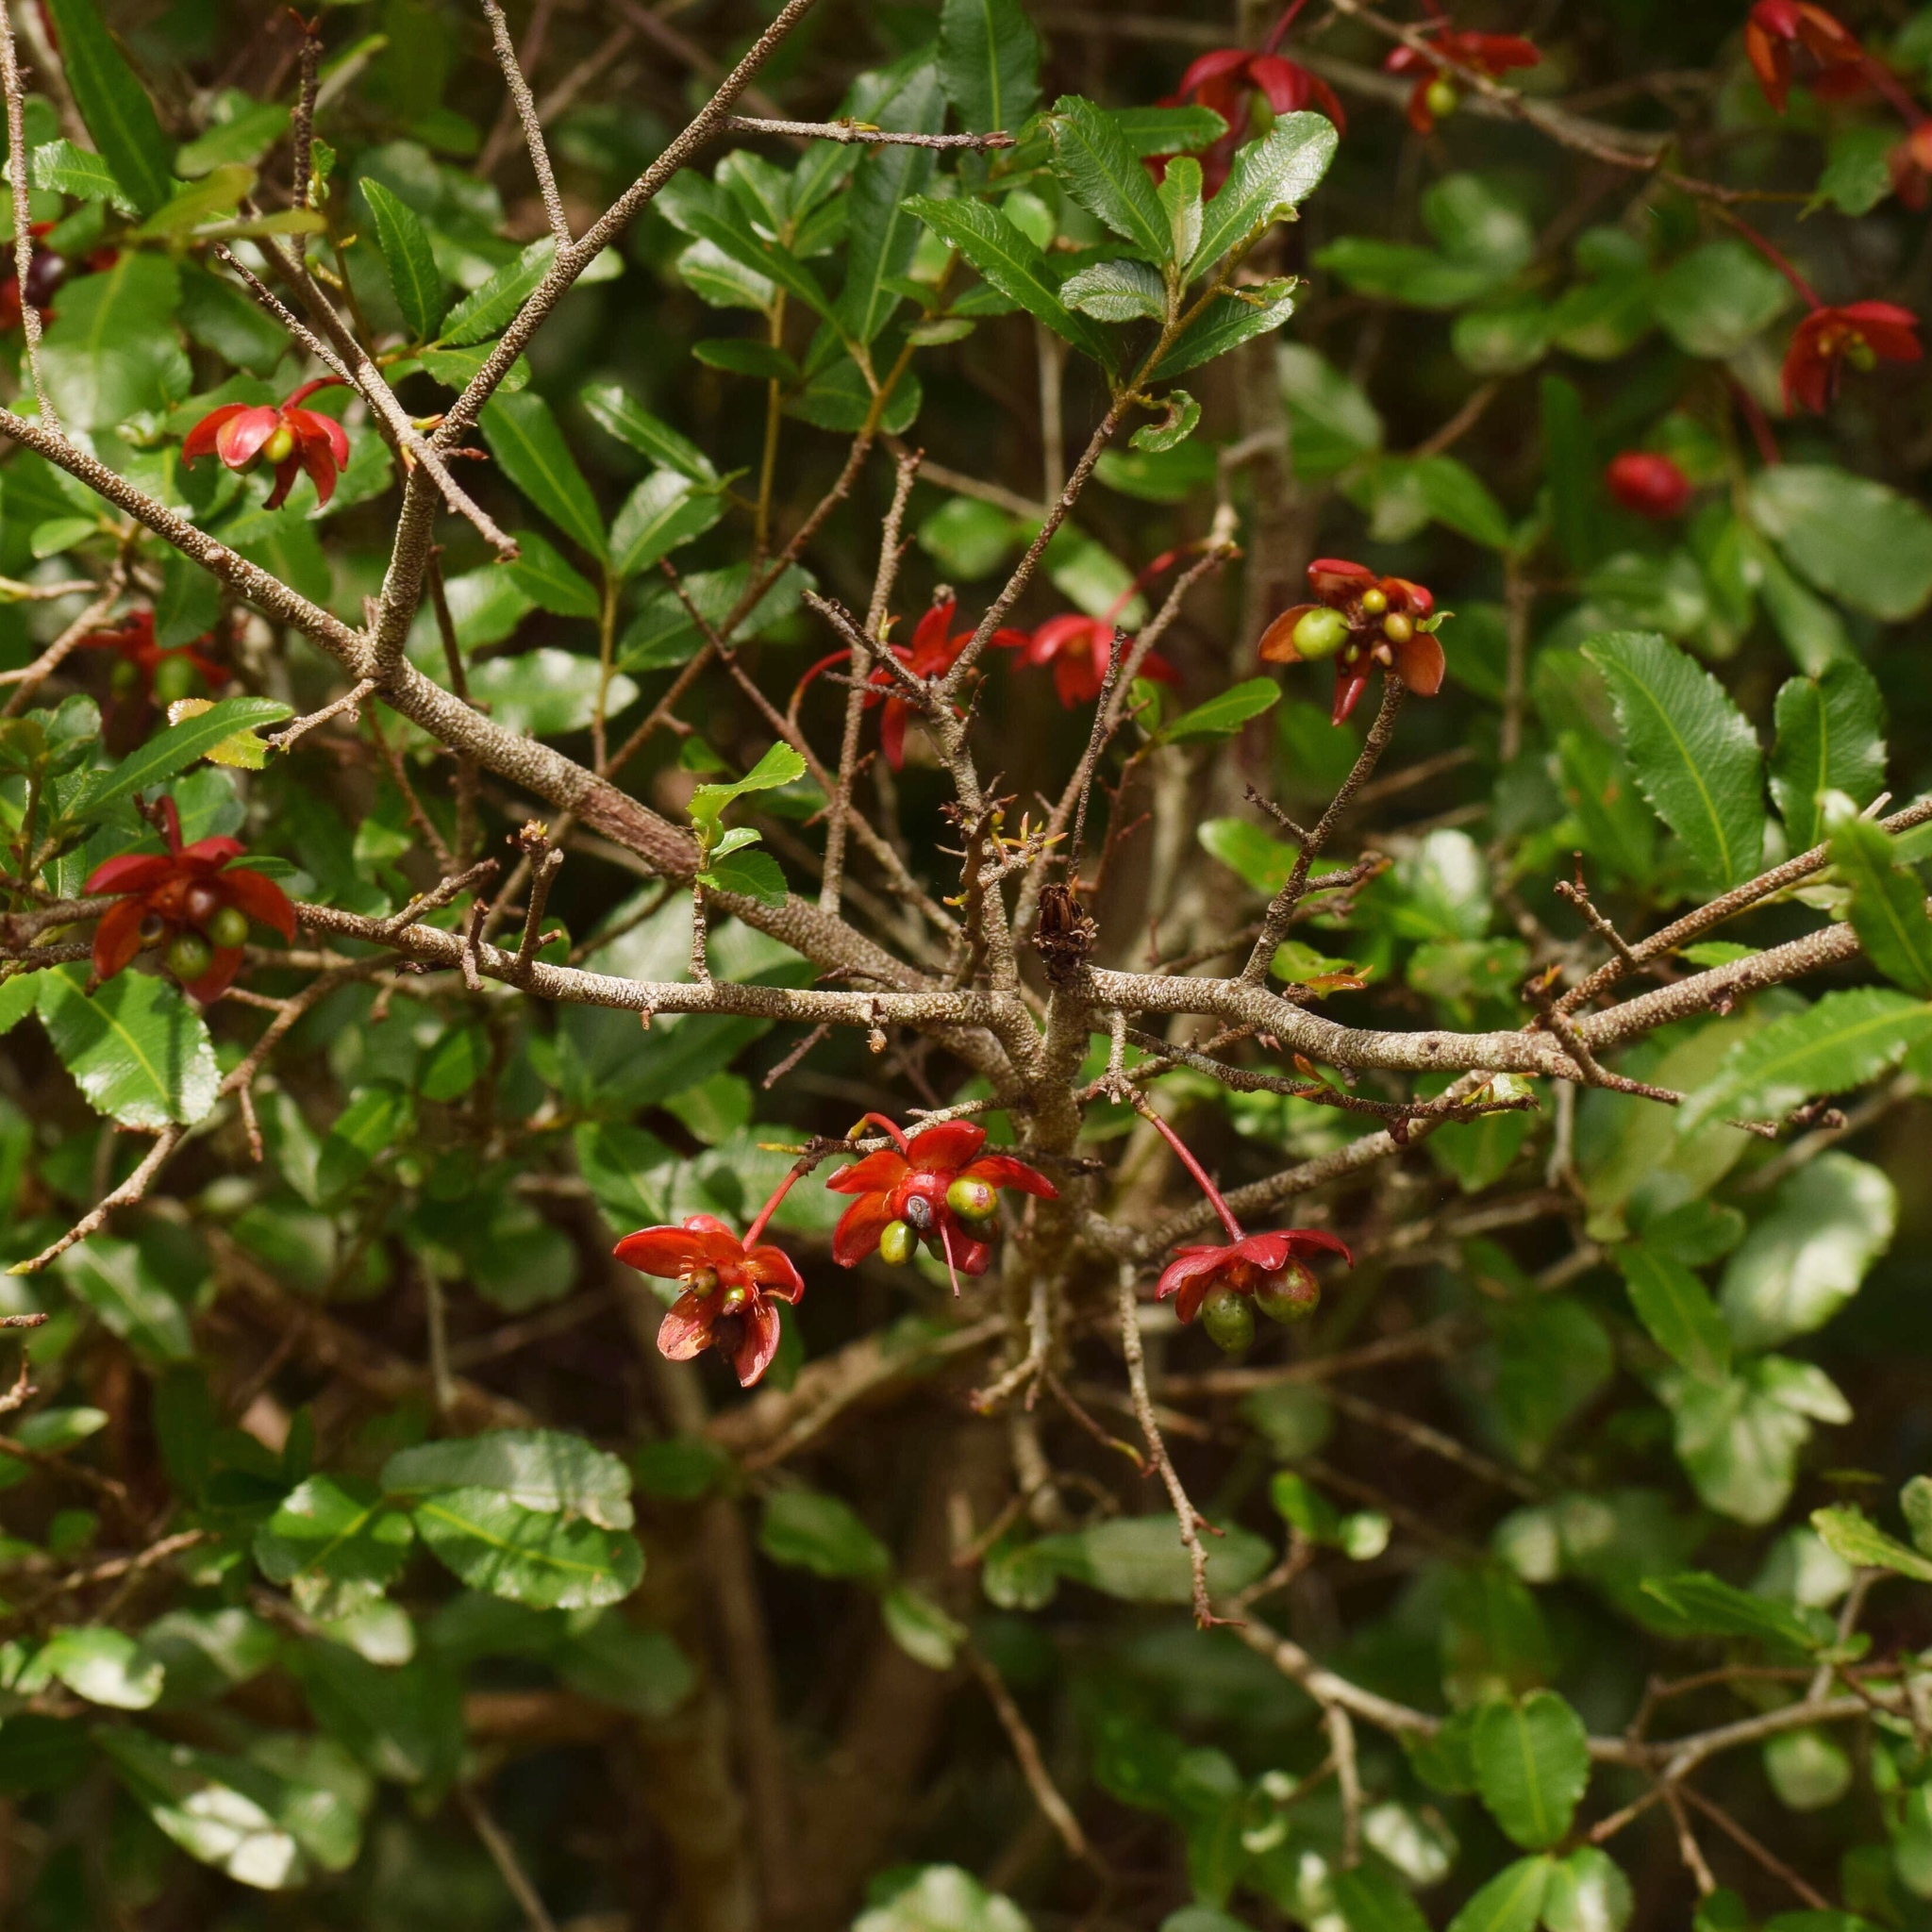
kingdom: Plantae
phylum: Tracheophyta
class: Magnoliopsida
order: Malpighiales
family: Ochnaceae
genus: Ochna
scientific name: Ochna serrulata
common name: Mickey mouse plant
